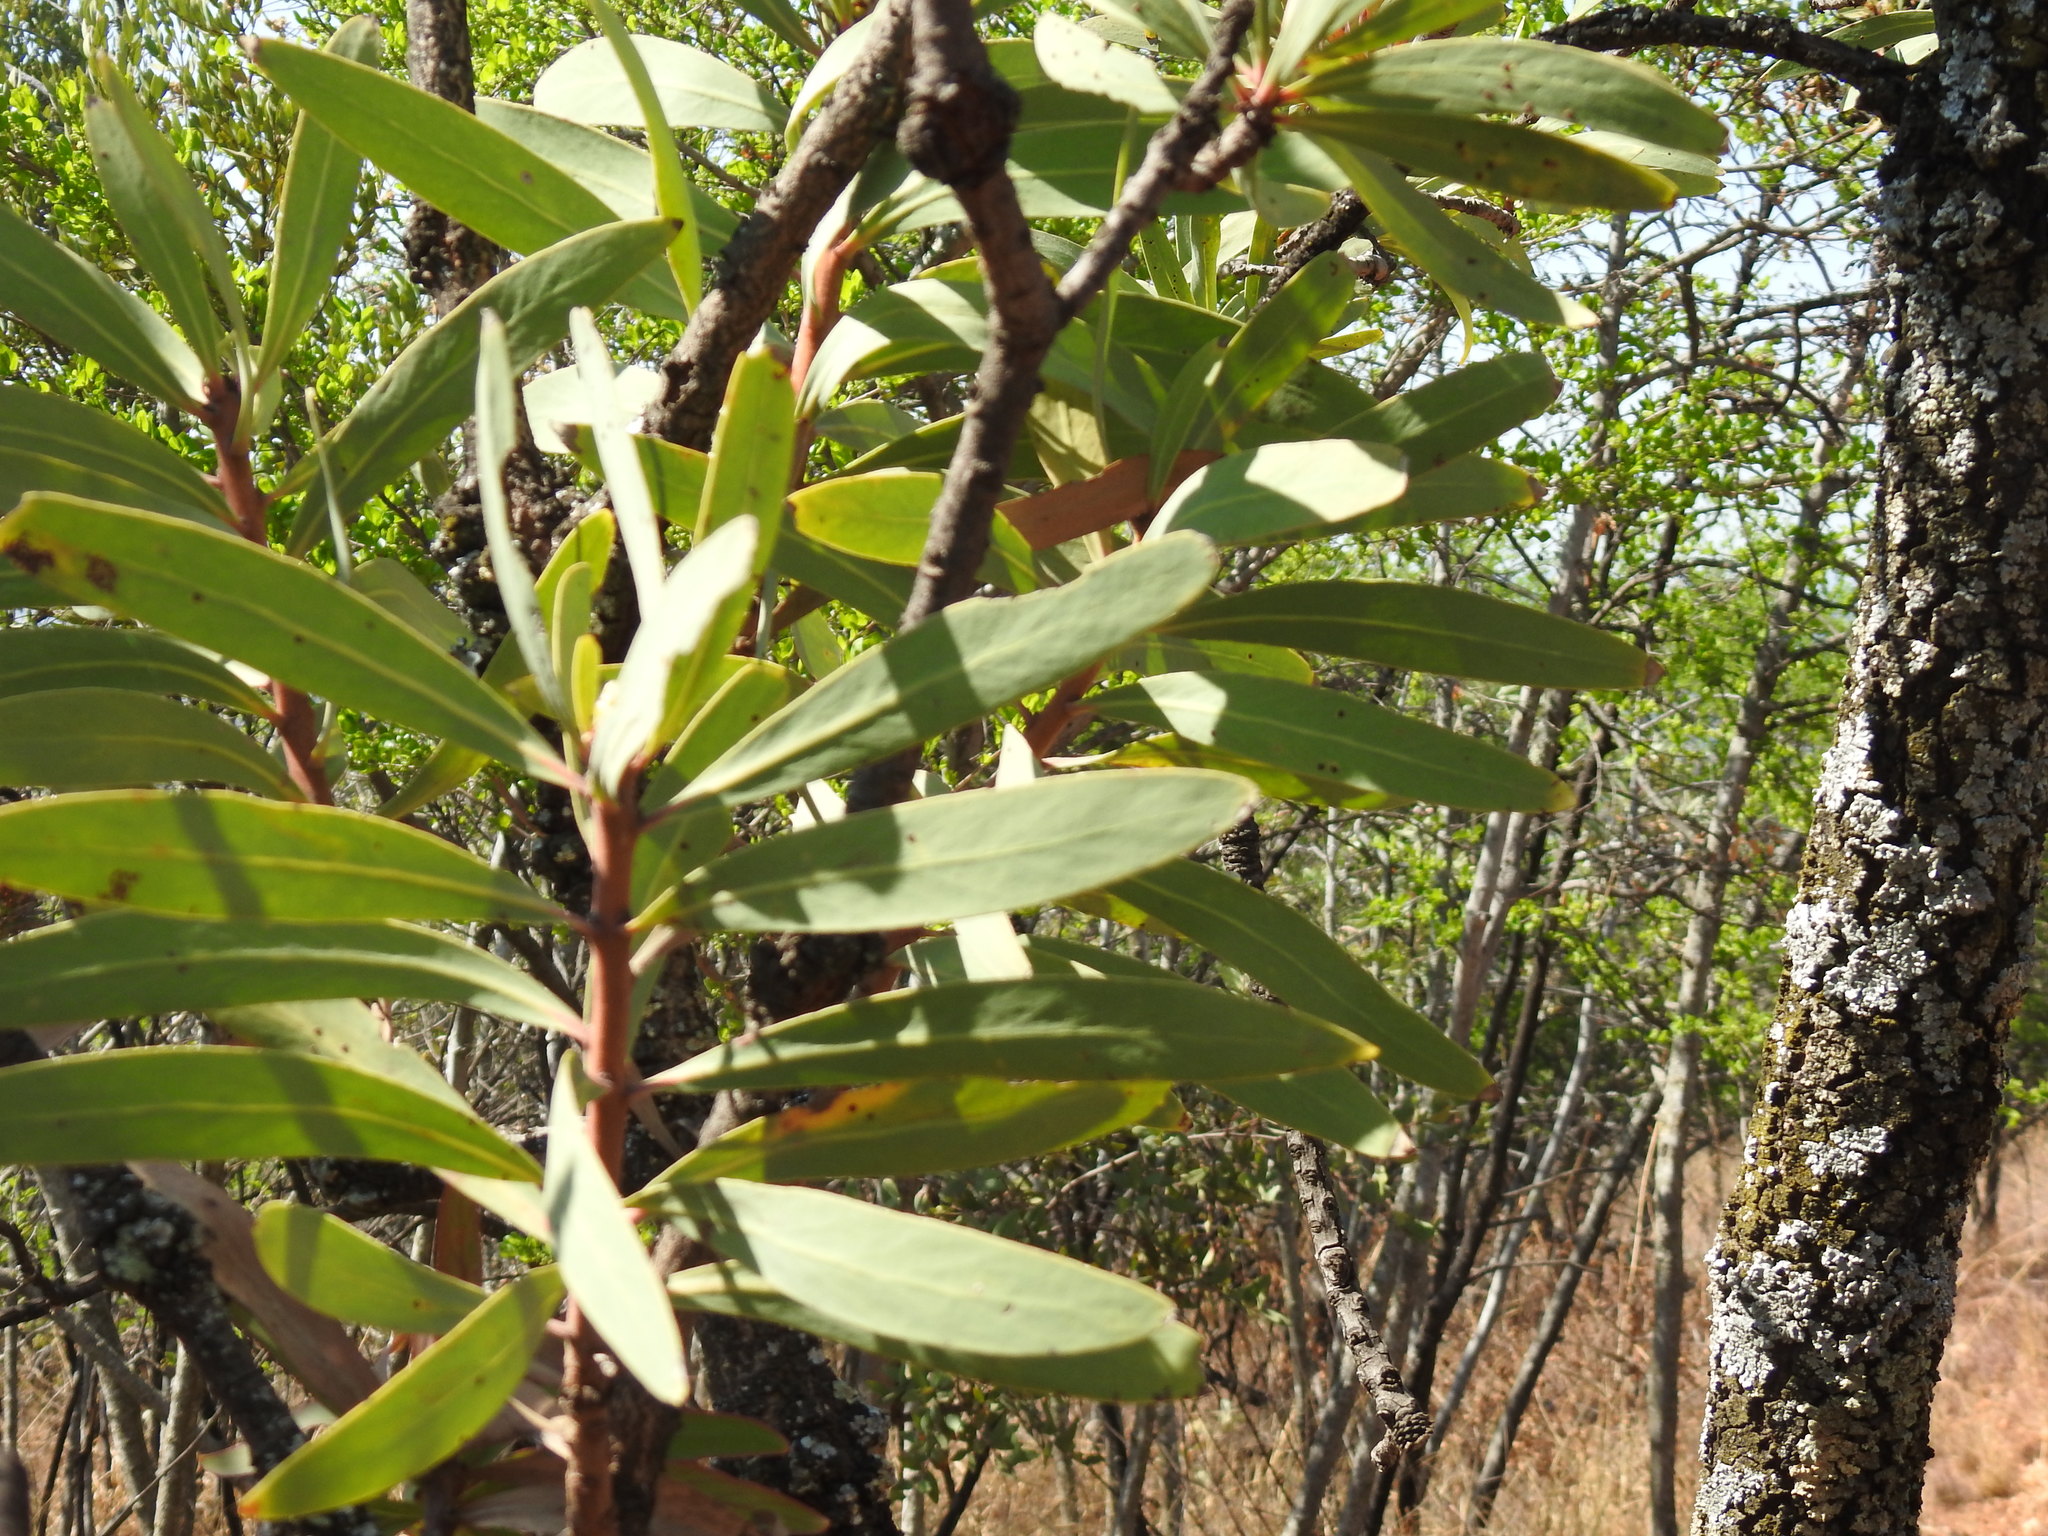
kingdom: Plantae
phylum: Tracheophyta
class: Magnoliopsida
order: Proteales
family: Proteaceae
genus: Protea
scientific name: Protea caffra
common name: Common sugarbush
